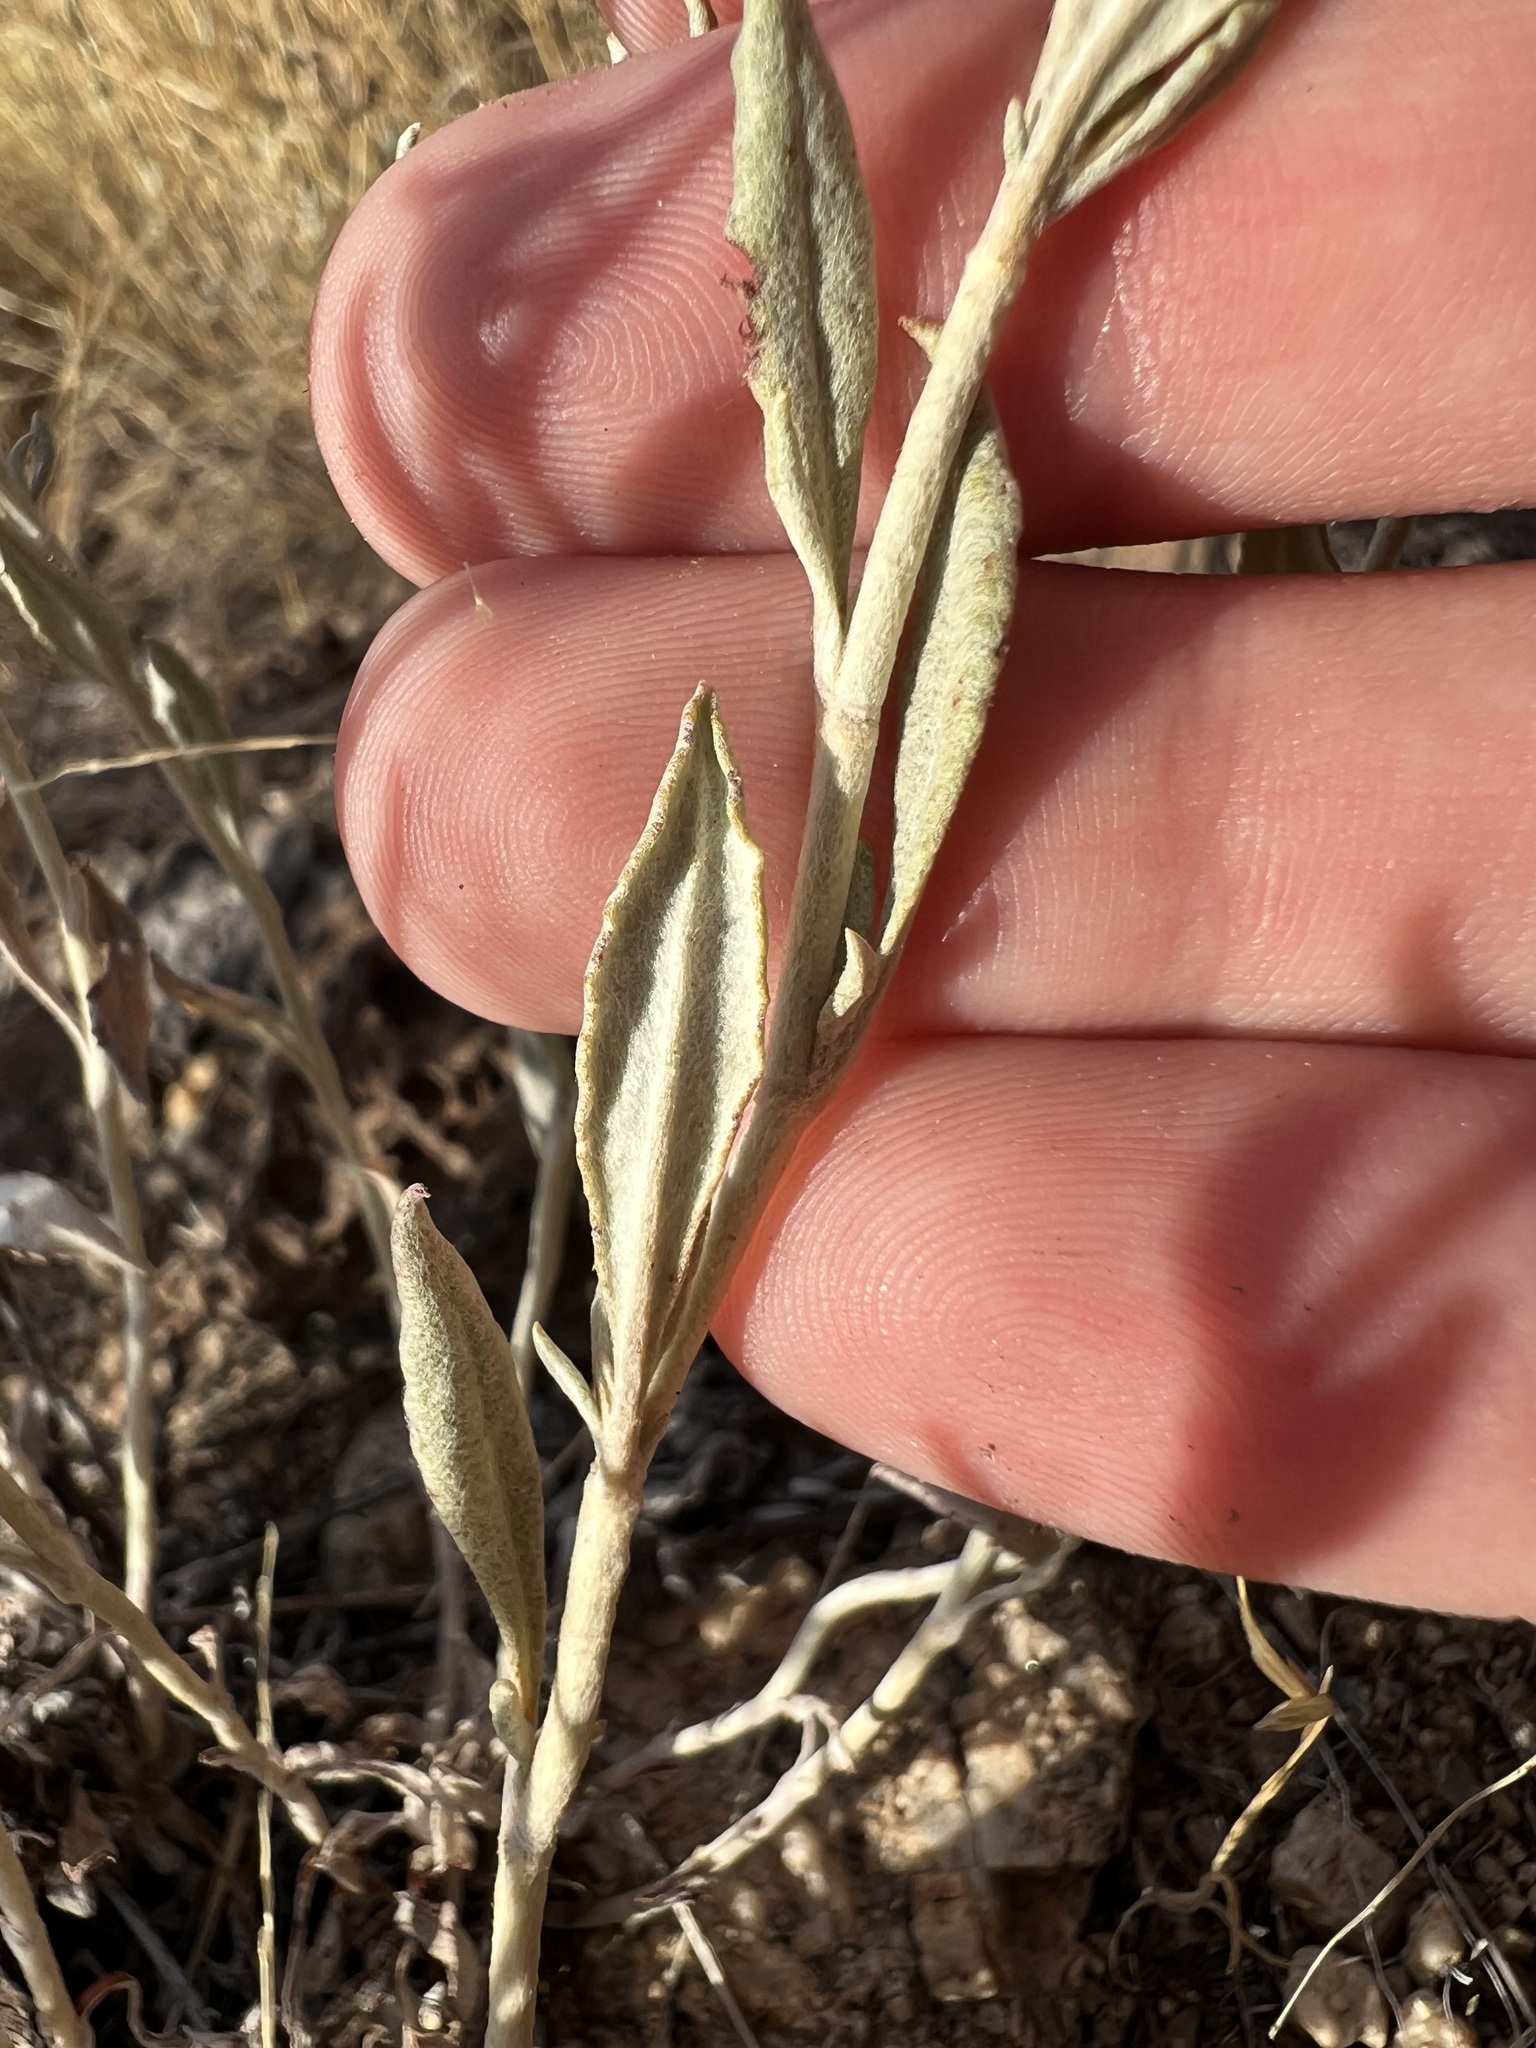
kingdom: Plantae
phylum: Tracheophyta
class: Magnoliopsida
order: Caryophyllales
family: Polygonaceae
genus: Eriogonum
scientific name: Eriogonum wrightii
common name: Bastard-sage
